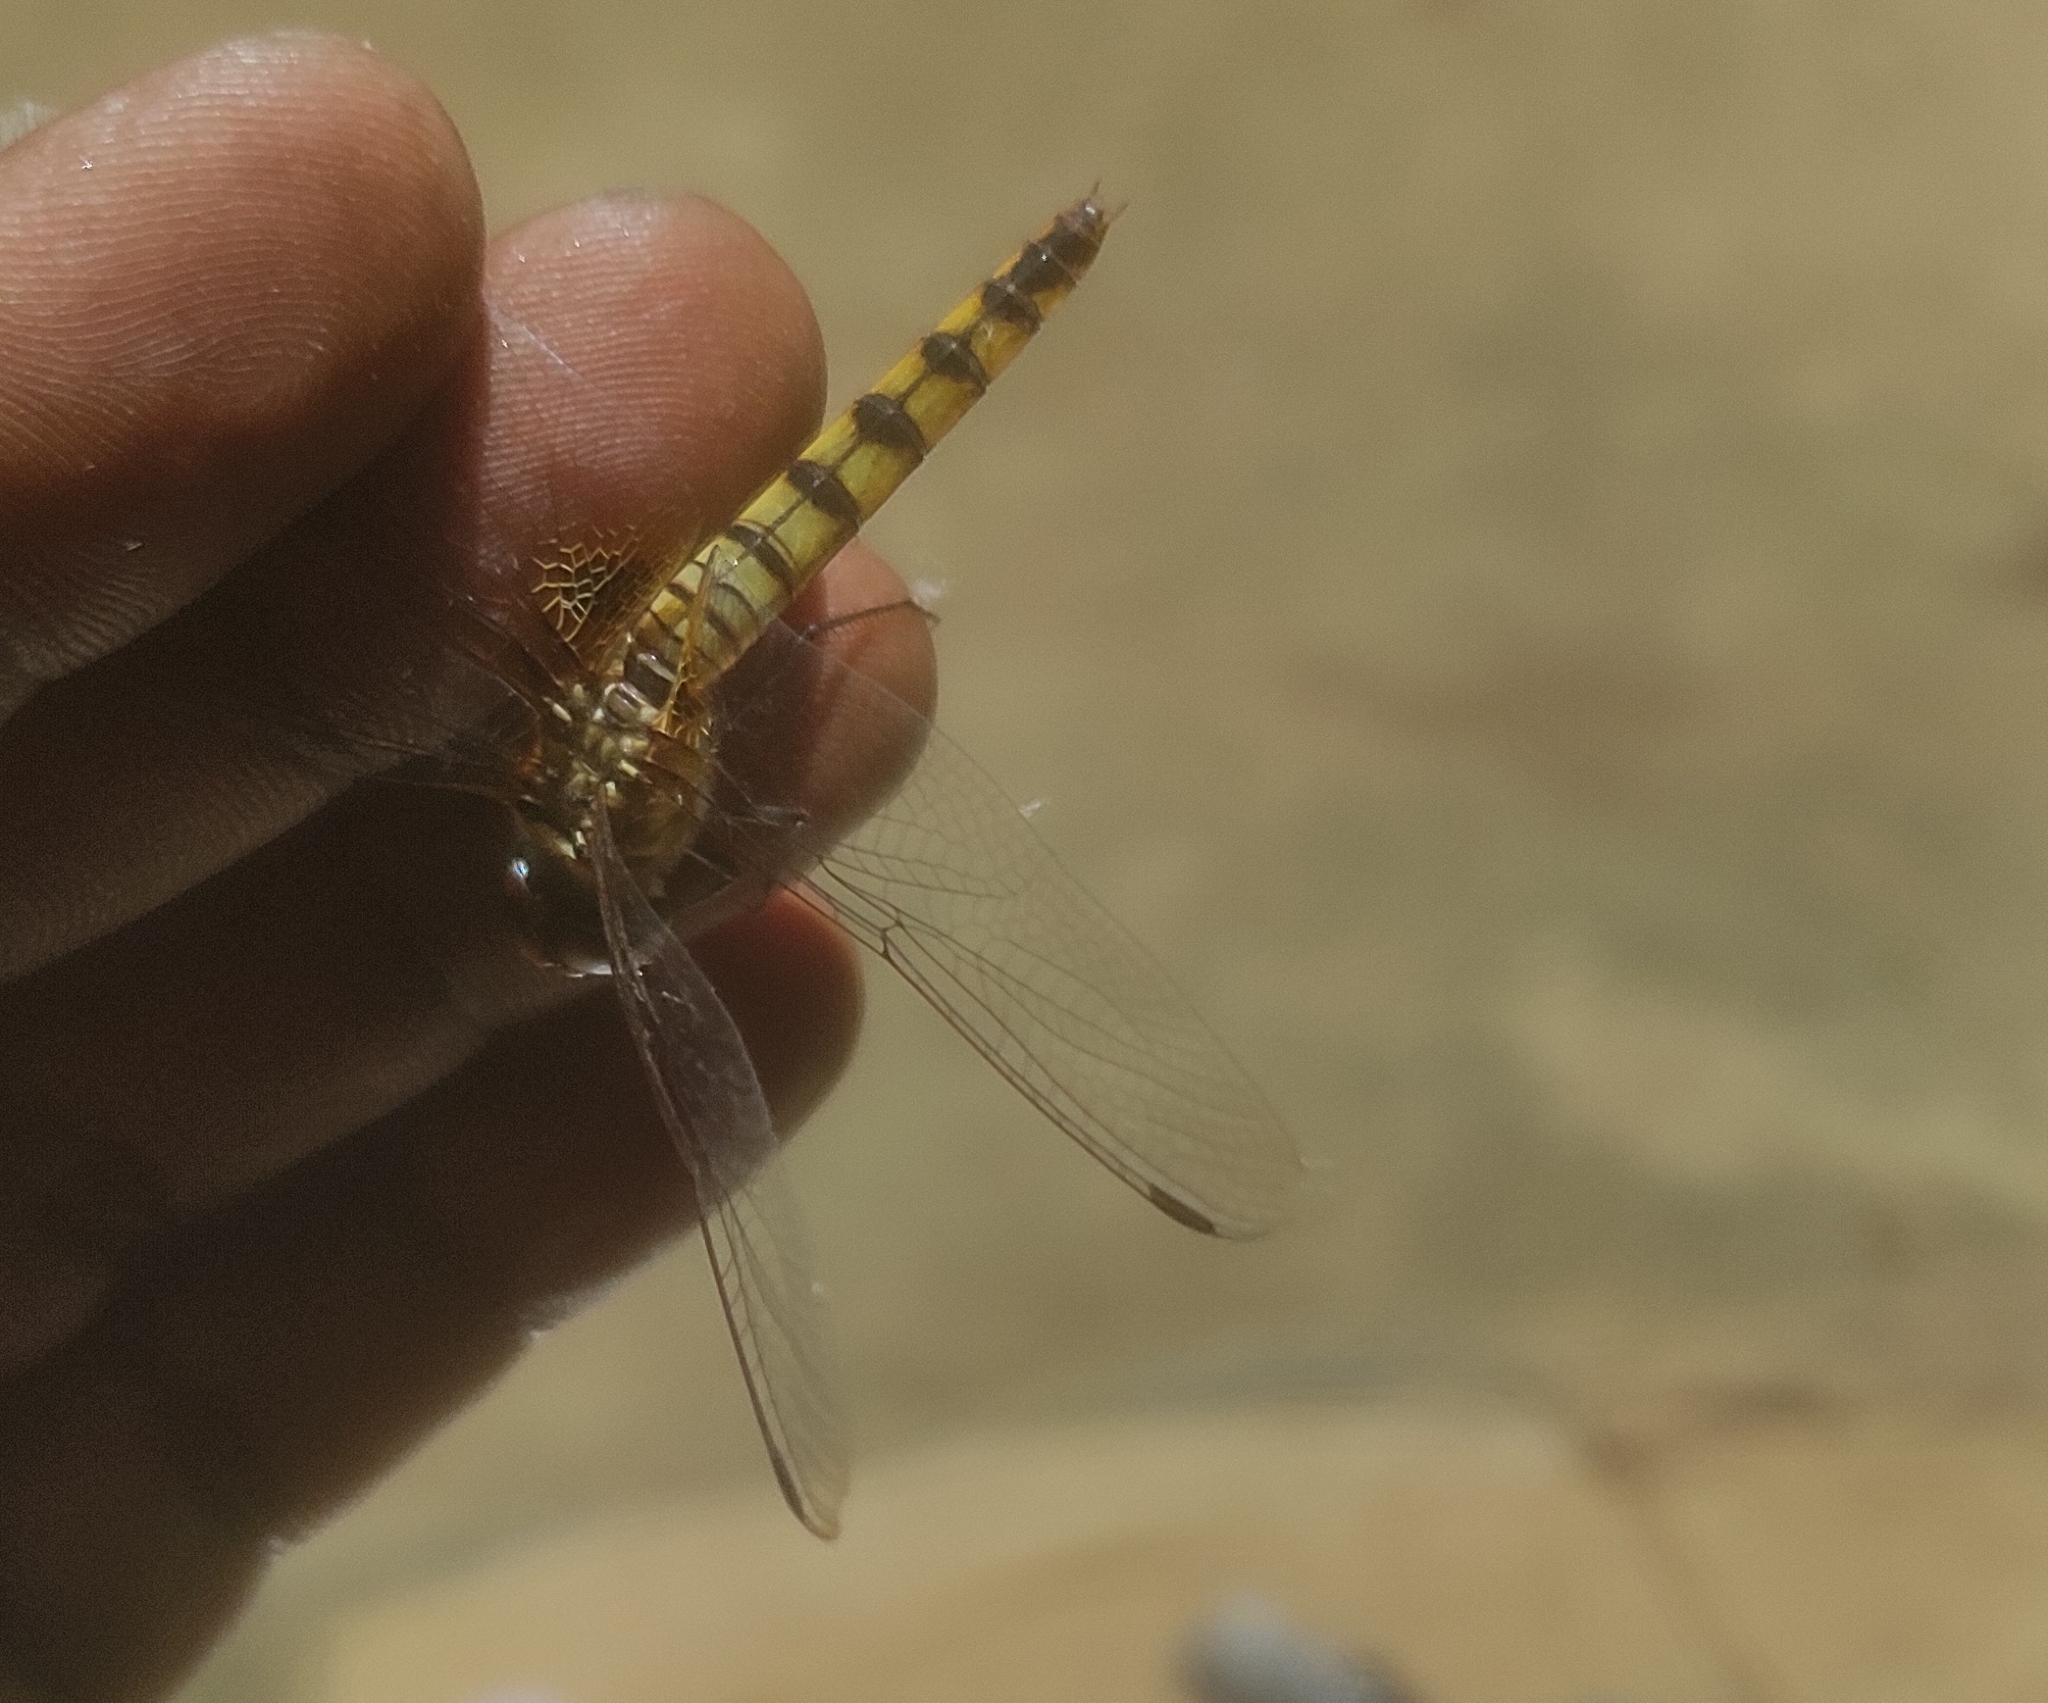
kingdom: Animalia
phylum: Arthropoda
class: Insecta
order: Odonata
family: Libellulidae
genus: Urothemis
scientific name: Urothemis signata
